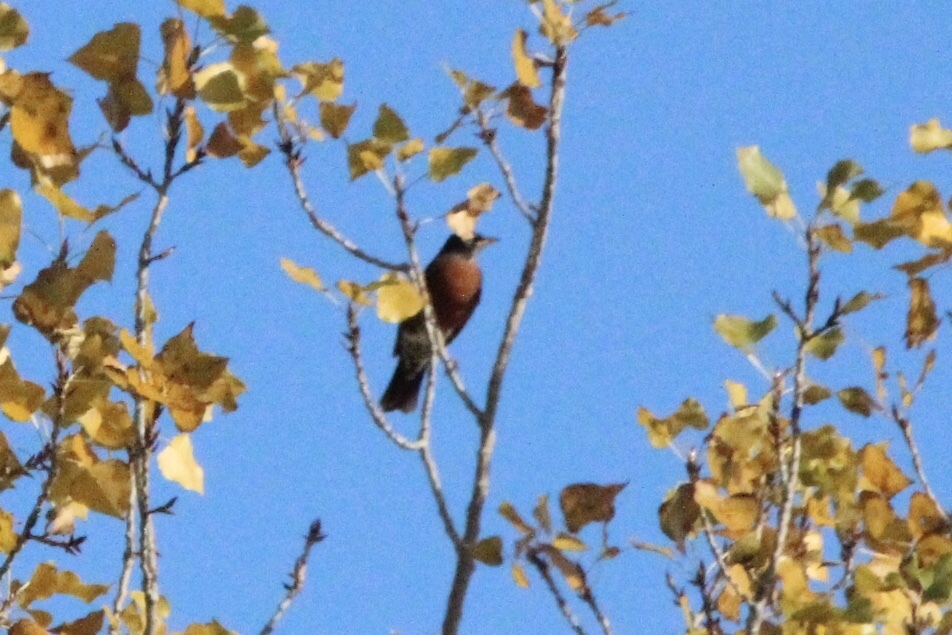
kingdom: Animalia
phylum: Chordata
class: Aves
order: Passeriformes
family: Turdidae
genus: Turdus
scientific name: Turdus migratorius
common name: American robin
